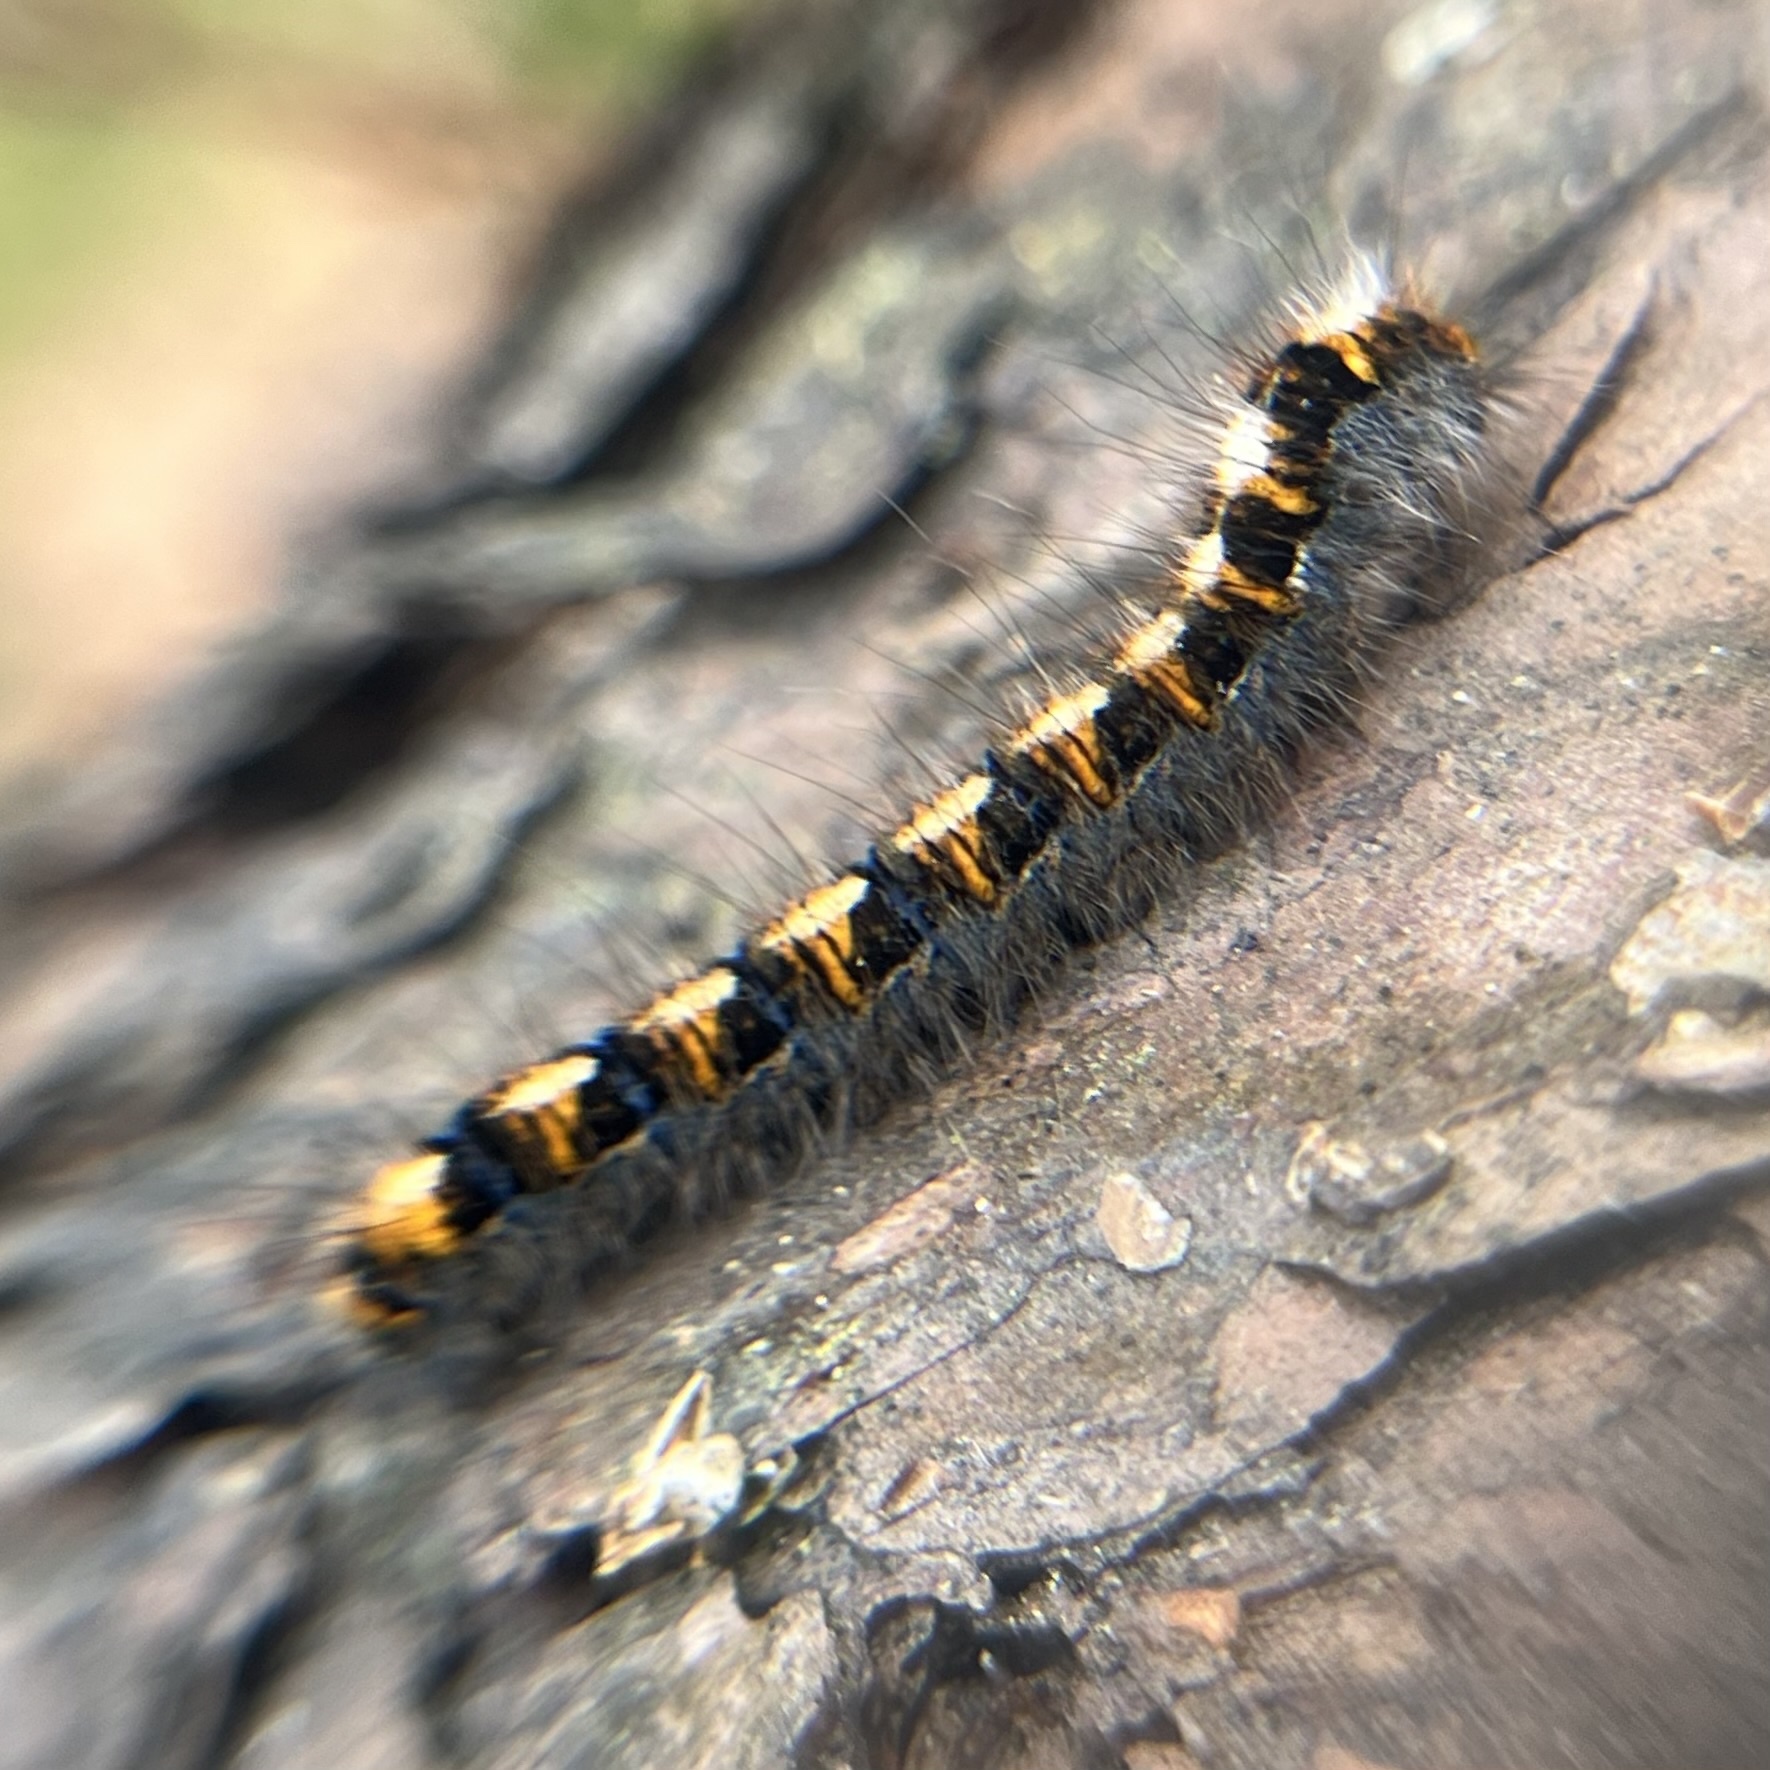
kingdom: Animalia
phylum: Arthropoda
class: Insecta
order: Lepidoptera
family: Lasiocampidae
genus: Lasiocampa
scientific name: Lasiocampa quercus
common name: Oak eggar
